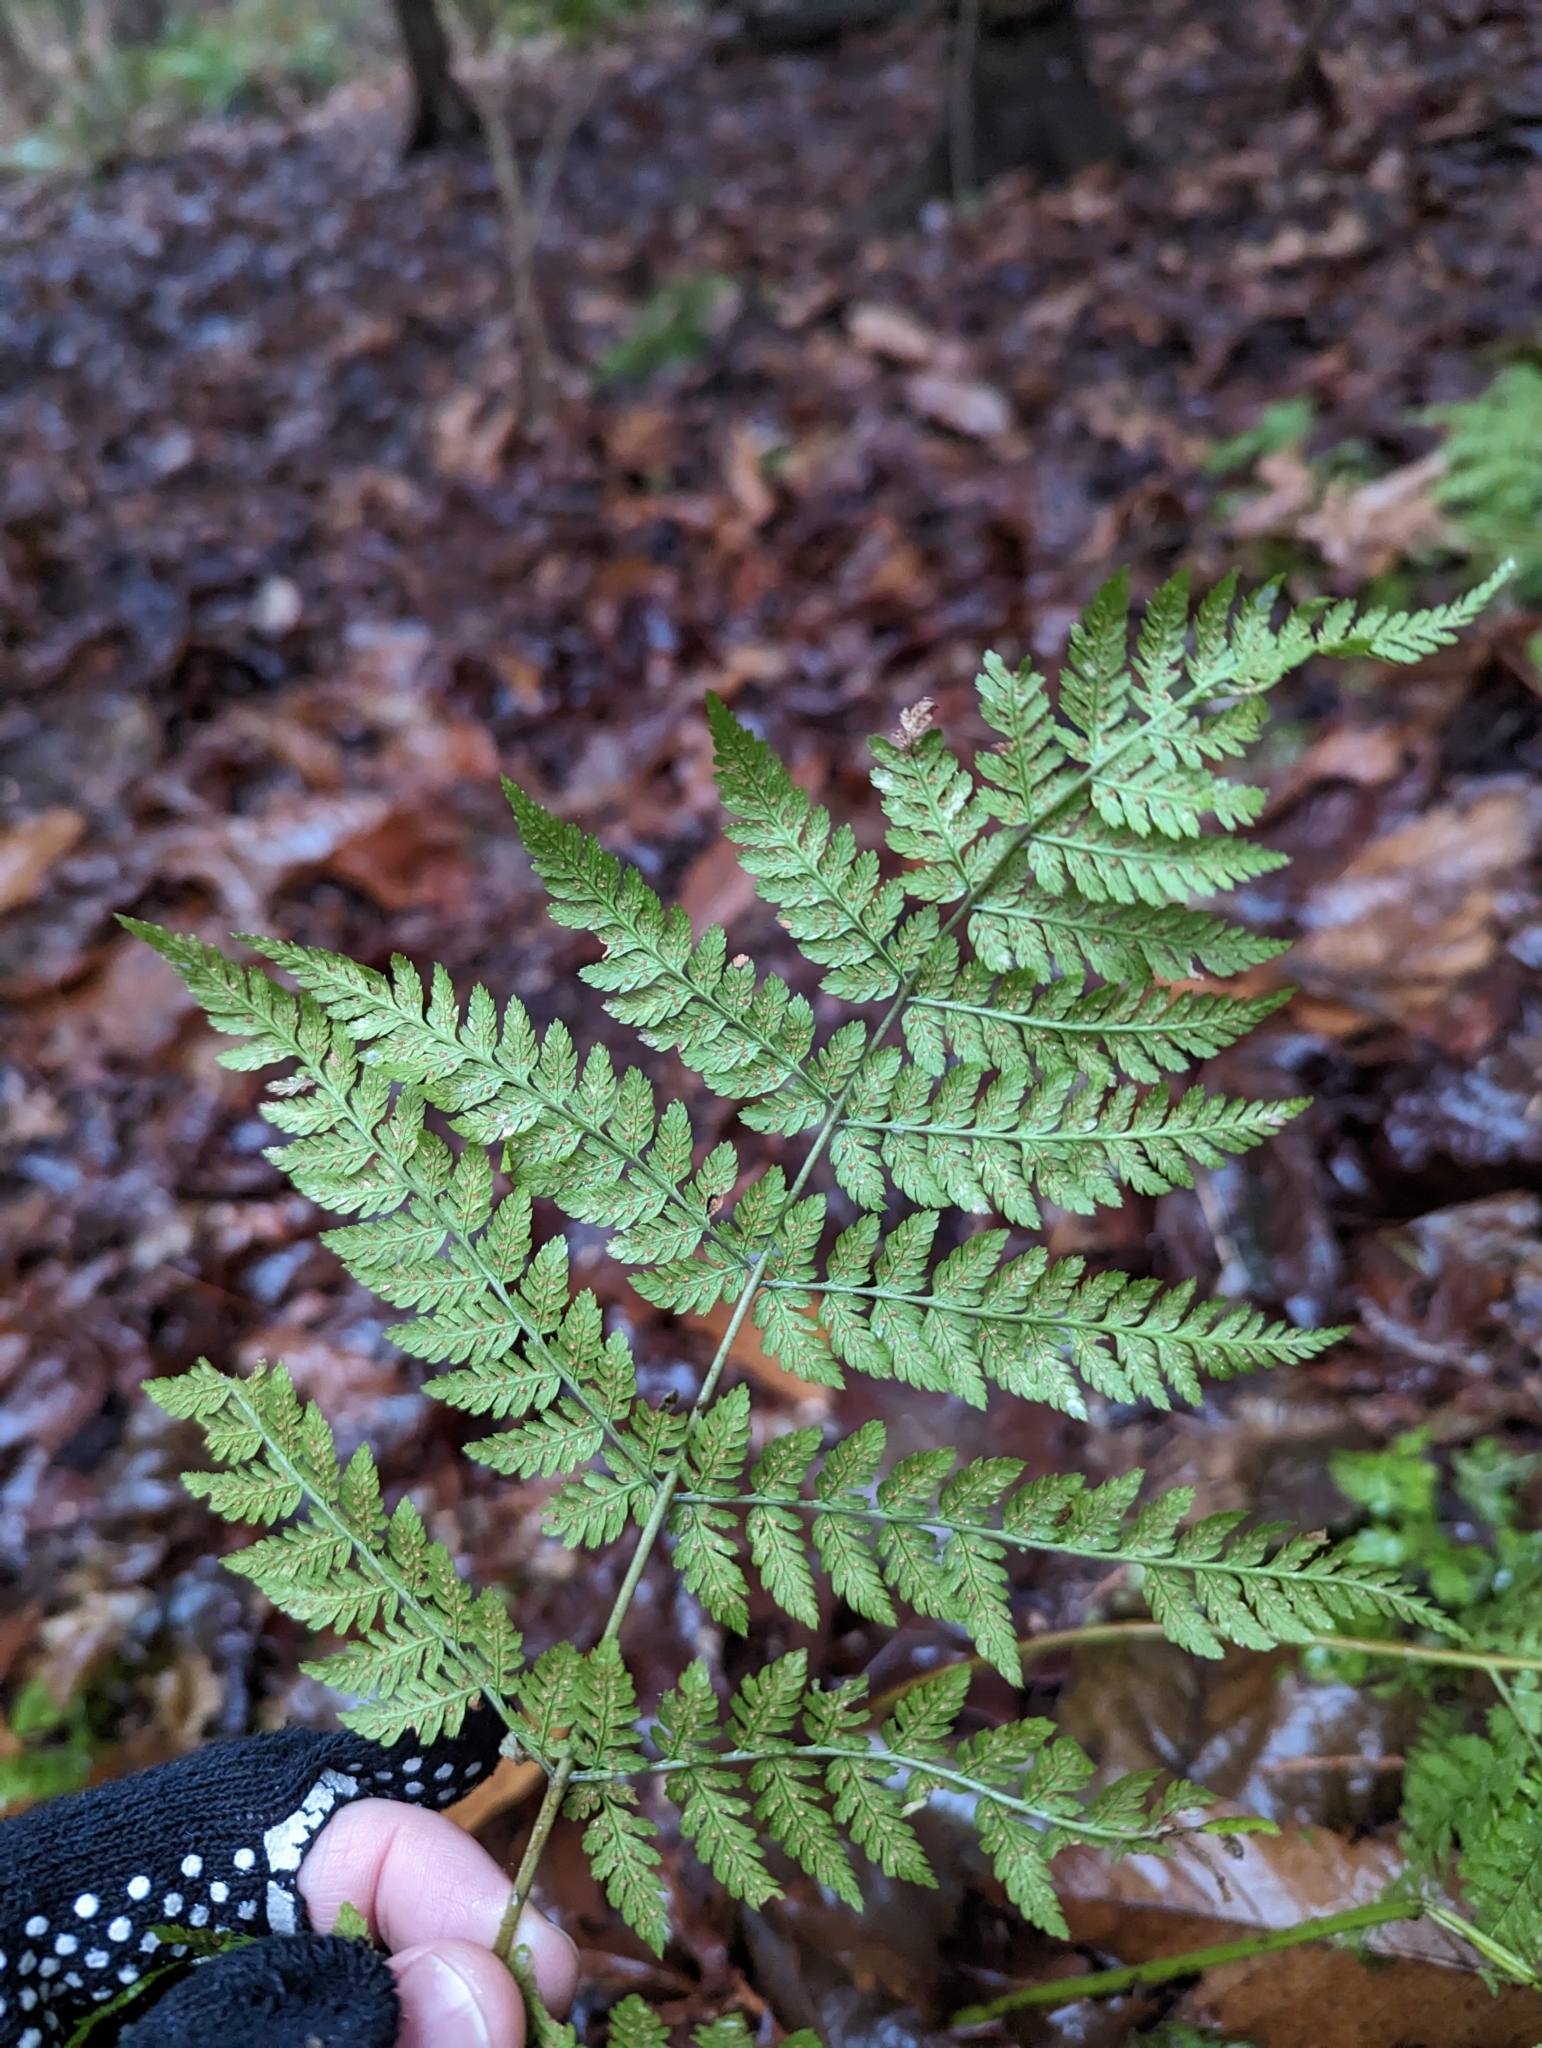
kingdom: Plantae
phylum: Tracheophyta
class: Polypodiopsida
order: Polypodiales
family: Dryopteridaceae
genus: Dryopteris
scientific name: Dryopteris expansa
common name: Northern buckler fern
